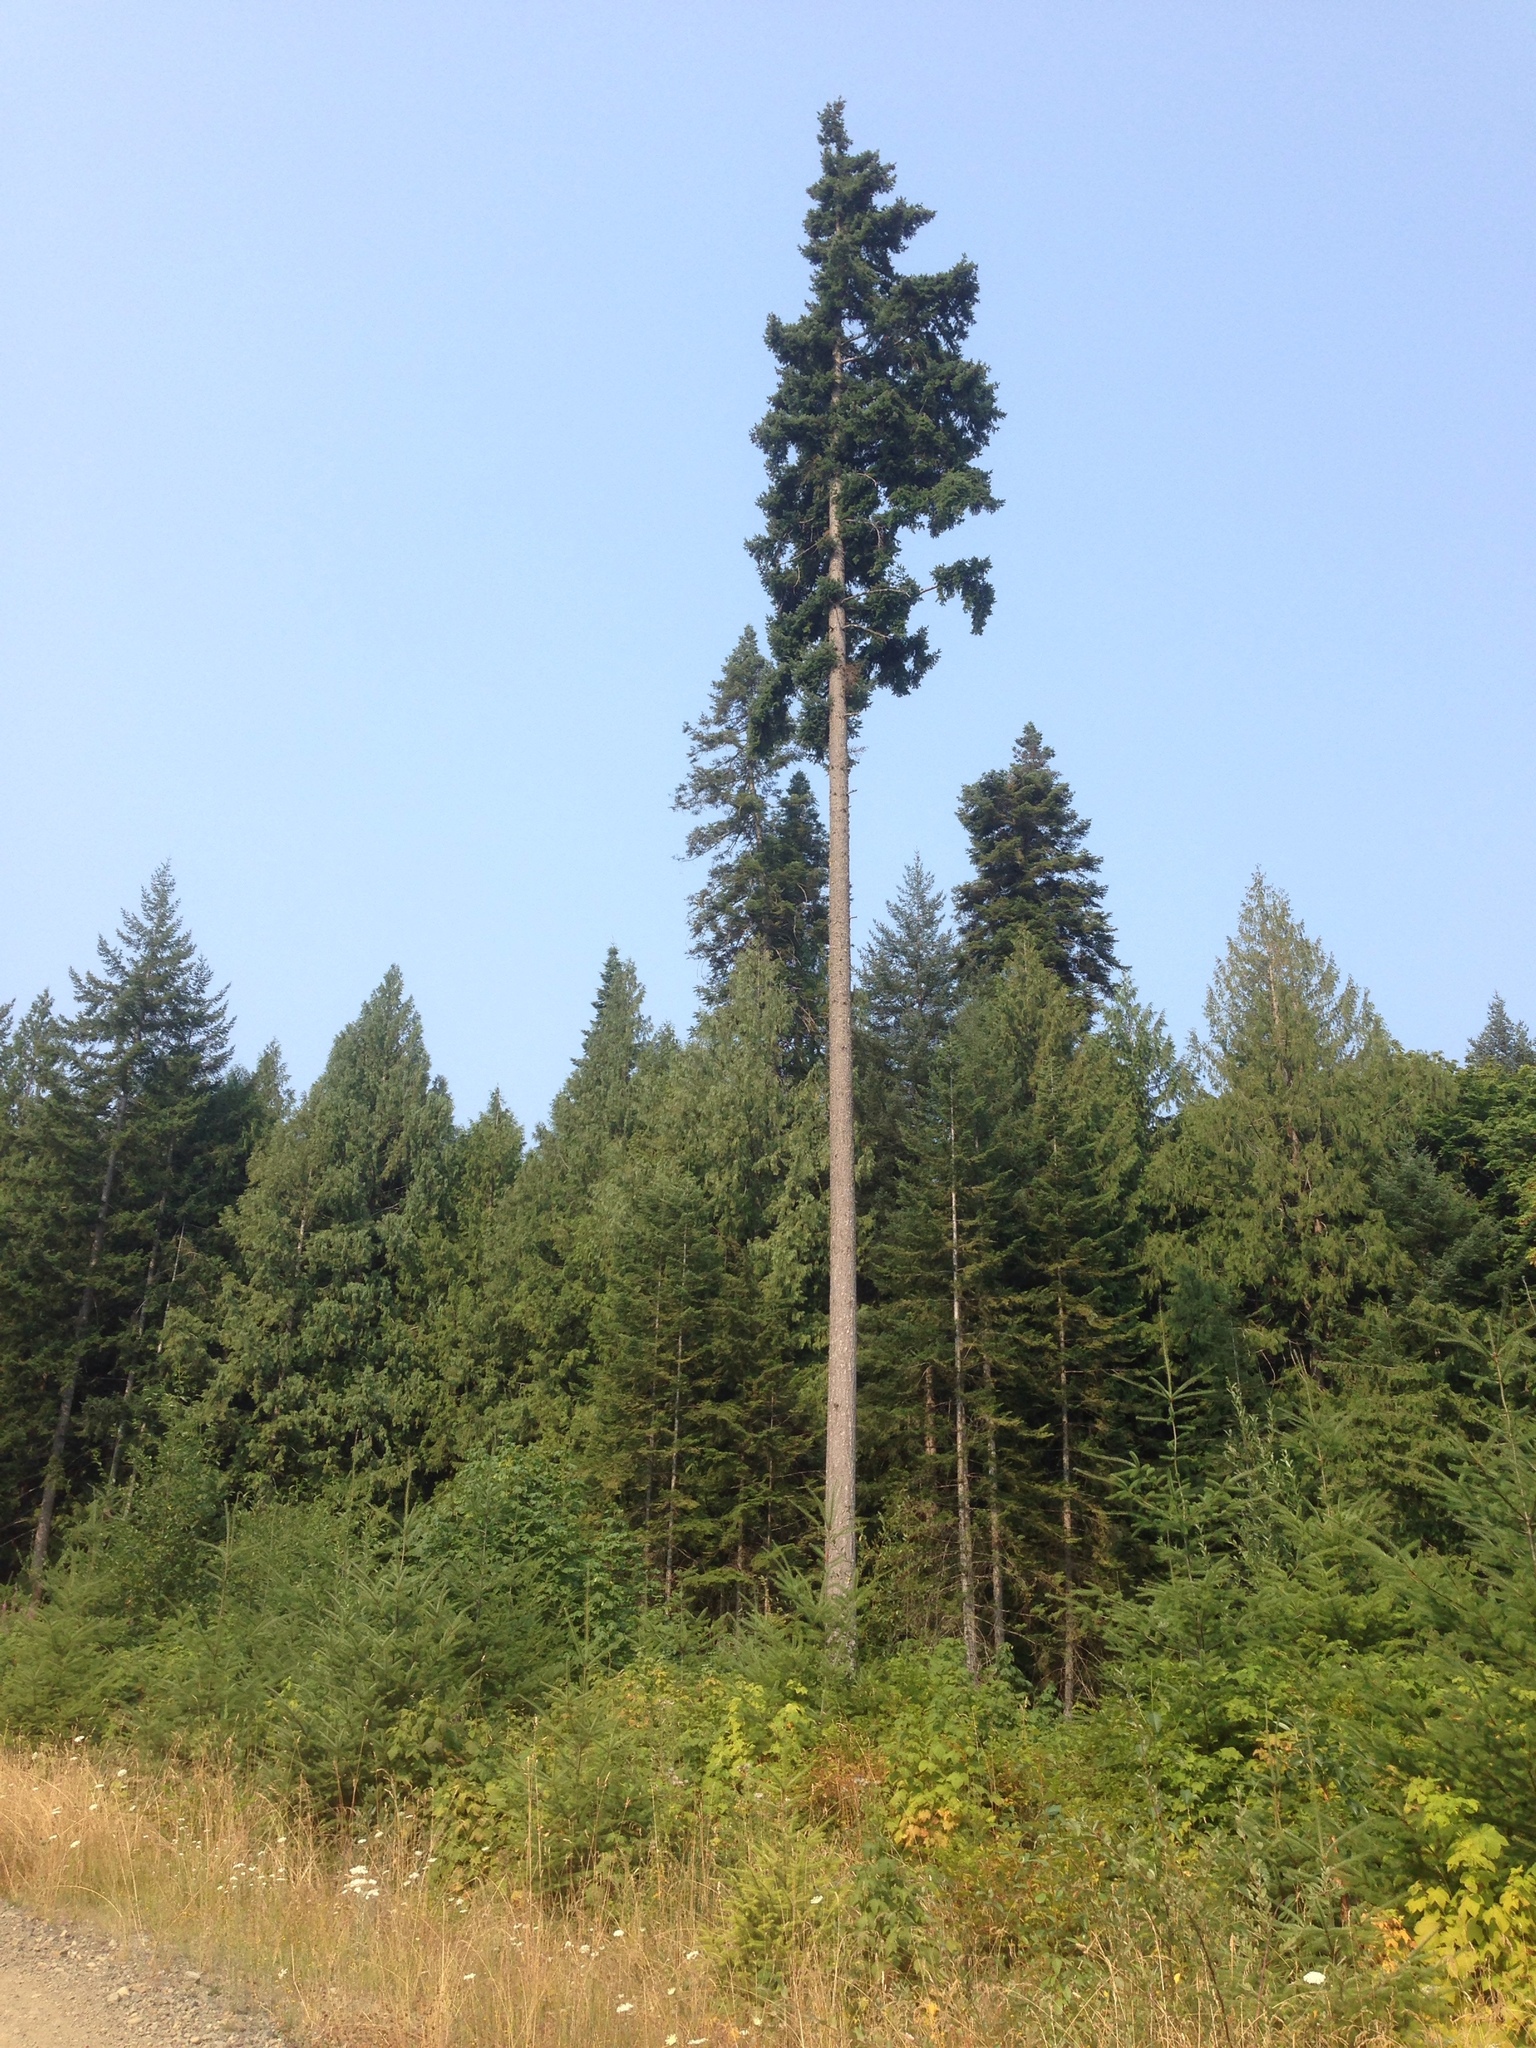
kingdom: Plantae
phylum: Tracheophyta
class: Pinopsida
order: Pinales
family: Pinaceae
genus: Pseudotsuga
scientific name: Pseudotsuga menziesii
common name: Douglas fir
